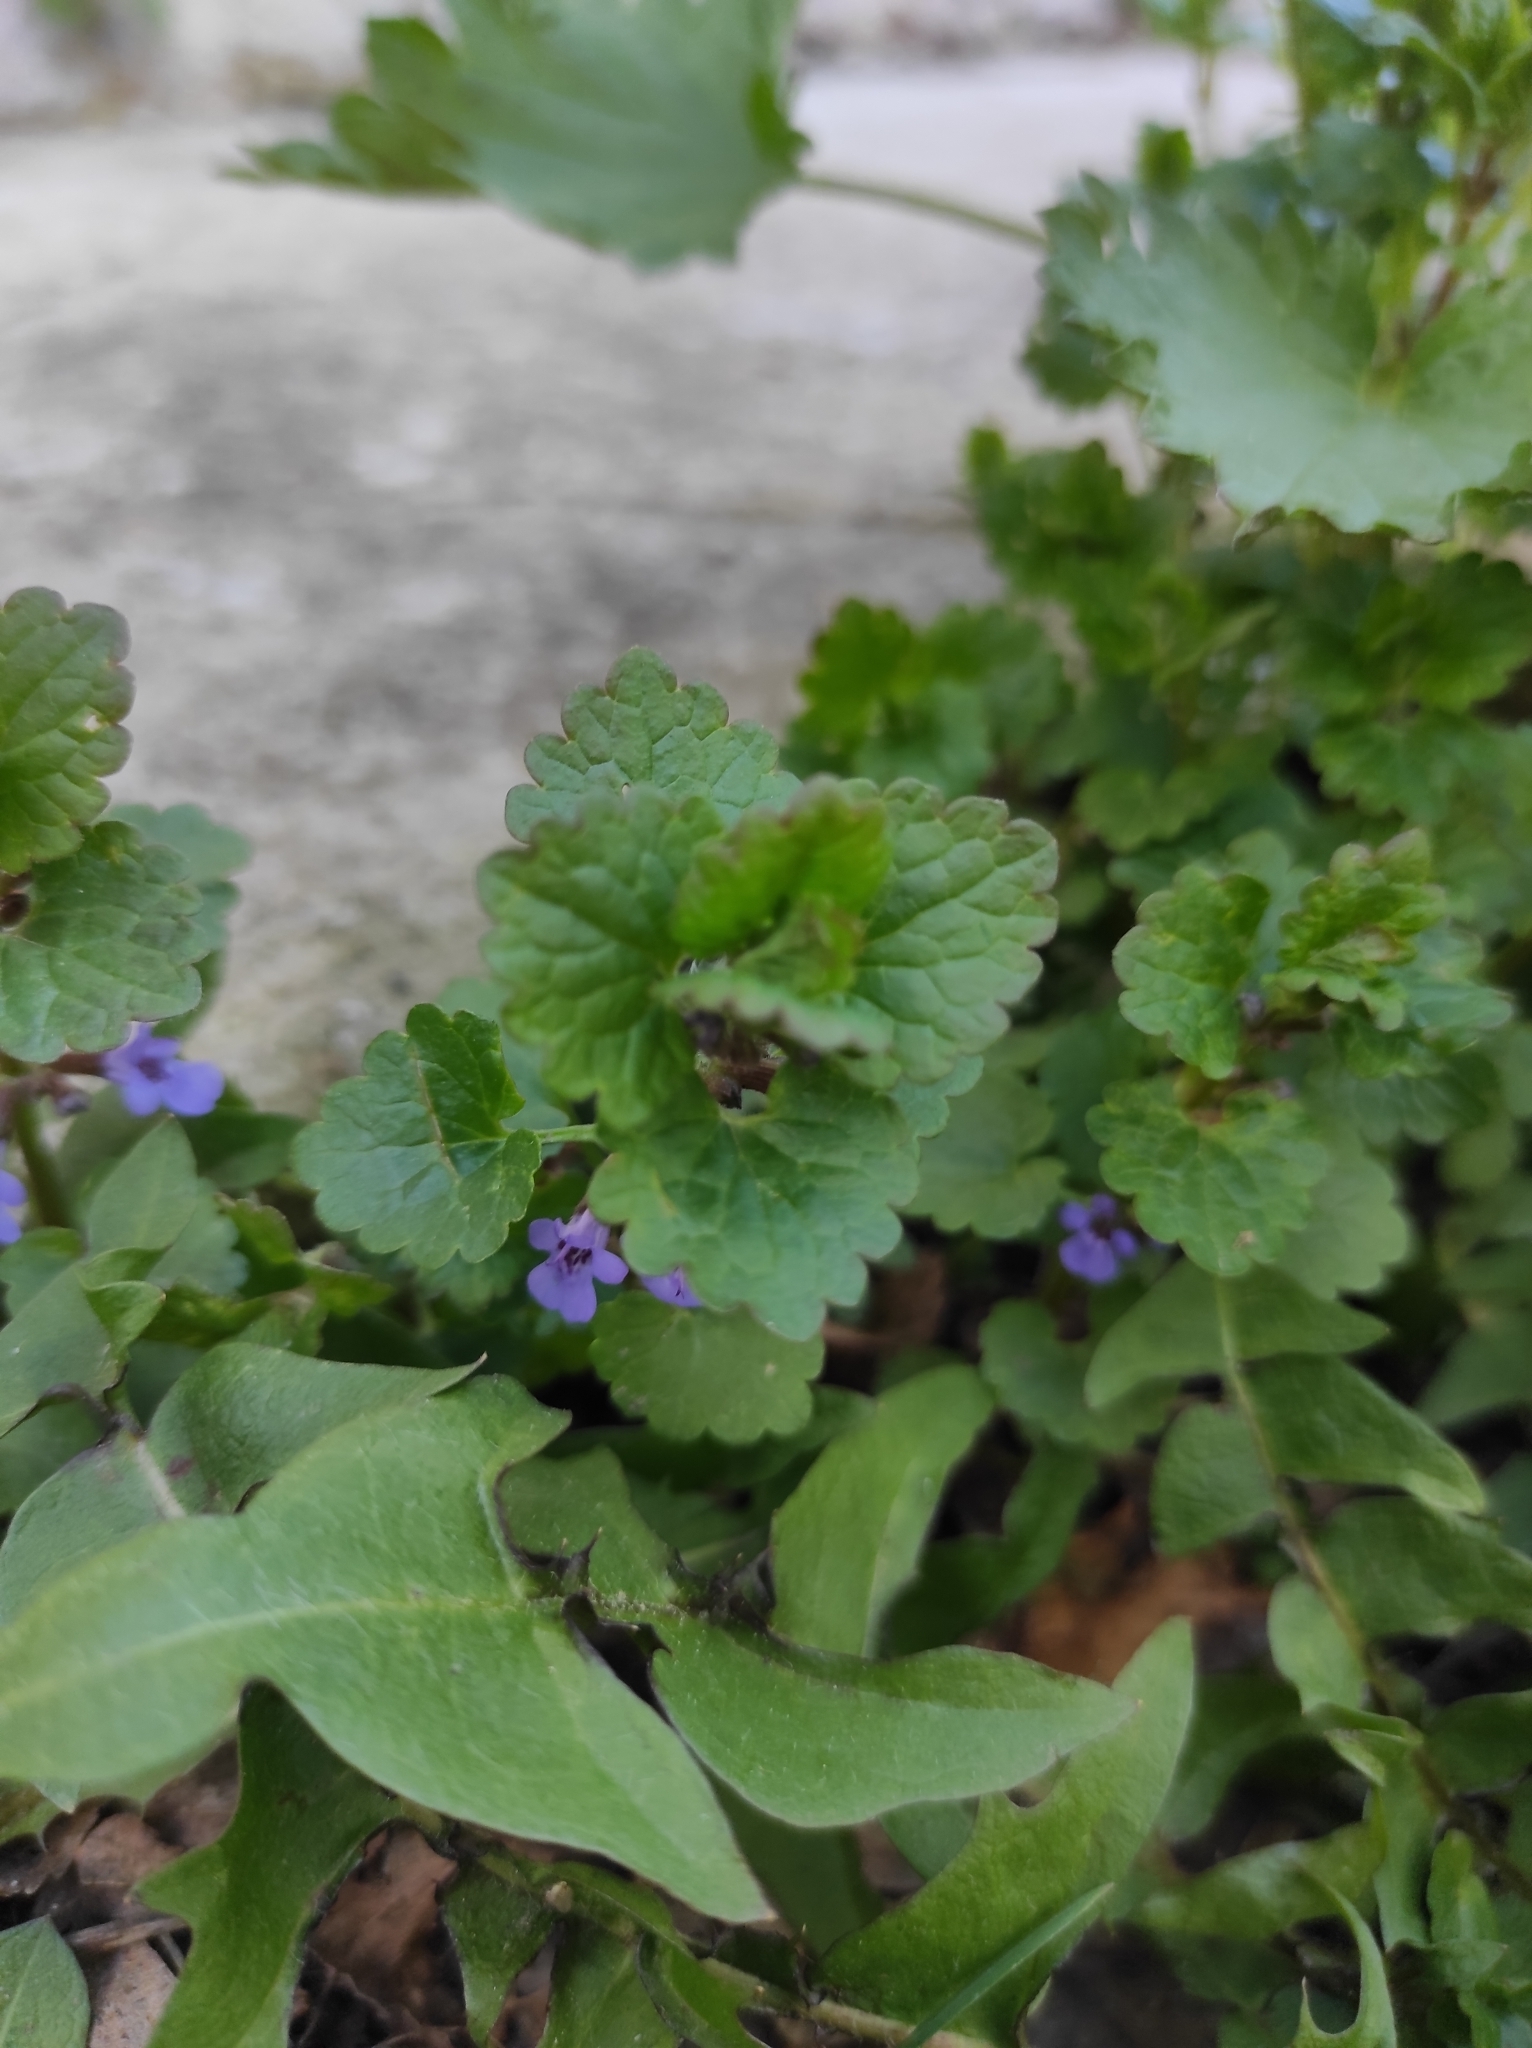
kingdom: Plantae
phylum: Tracheophyta
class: Magnoliopsida
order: Lamiales
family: Lamiaceae
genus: Glechoma
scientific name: Glechoma hederacea
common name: Ground ivy
